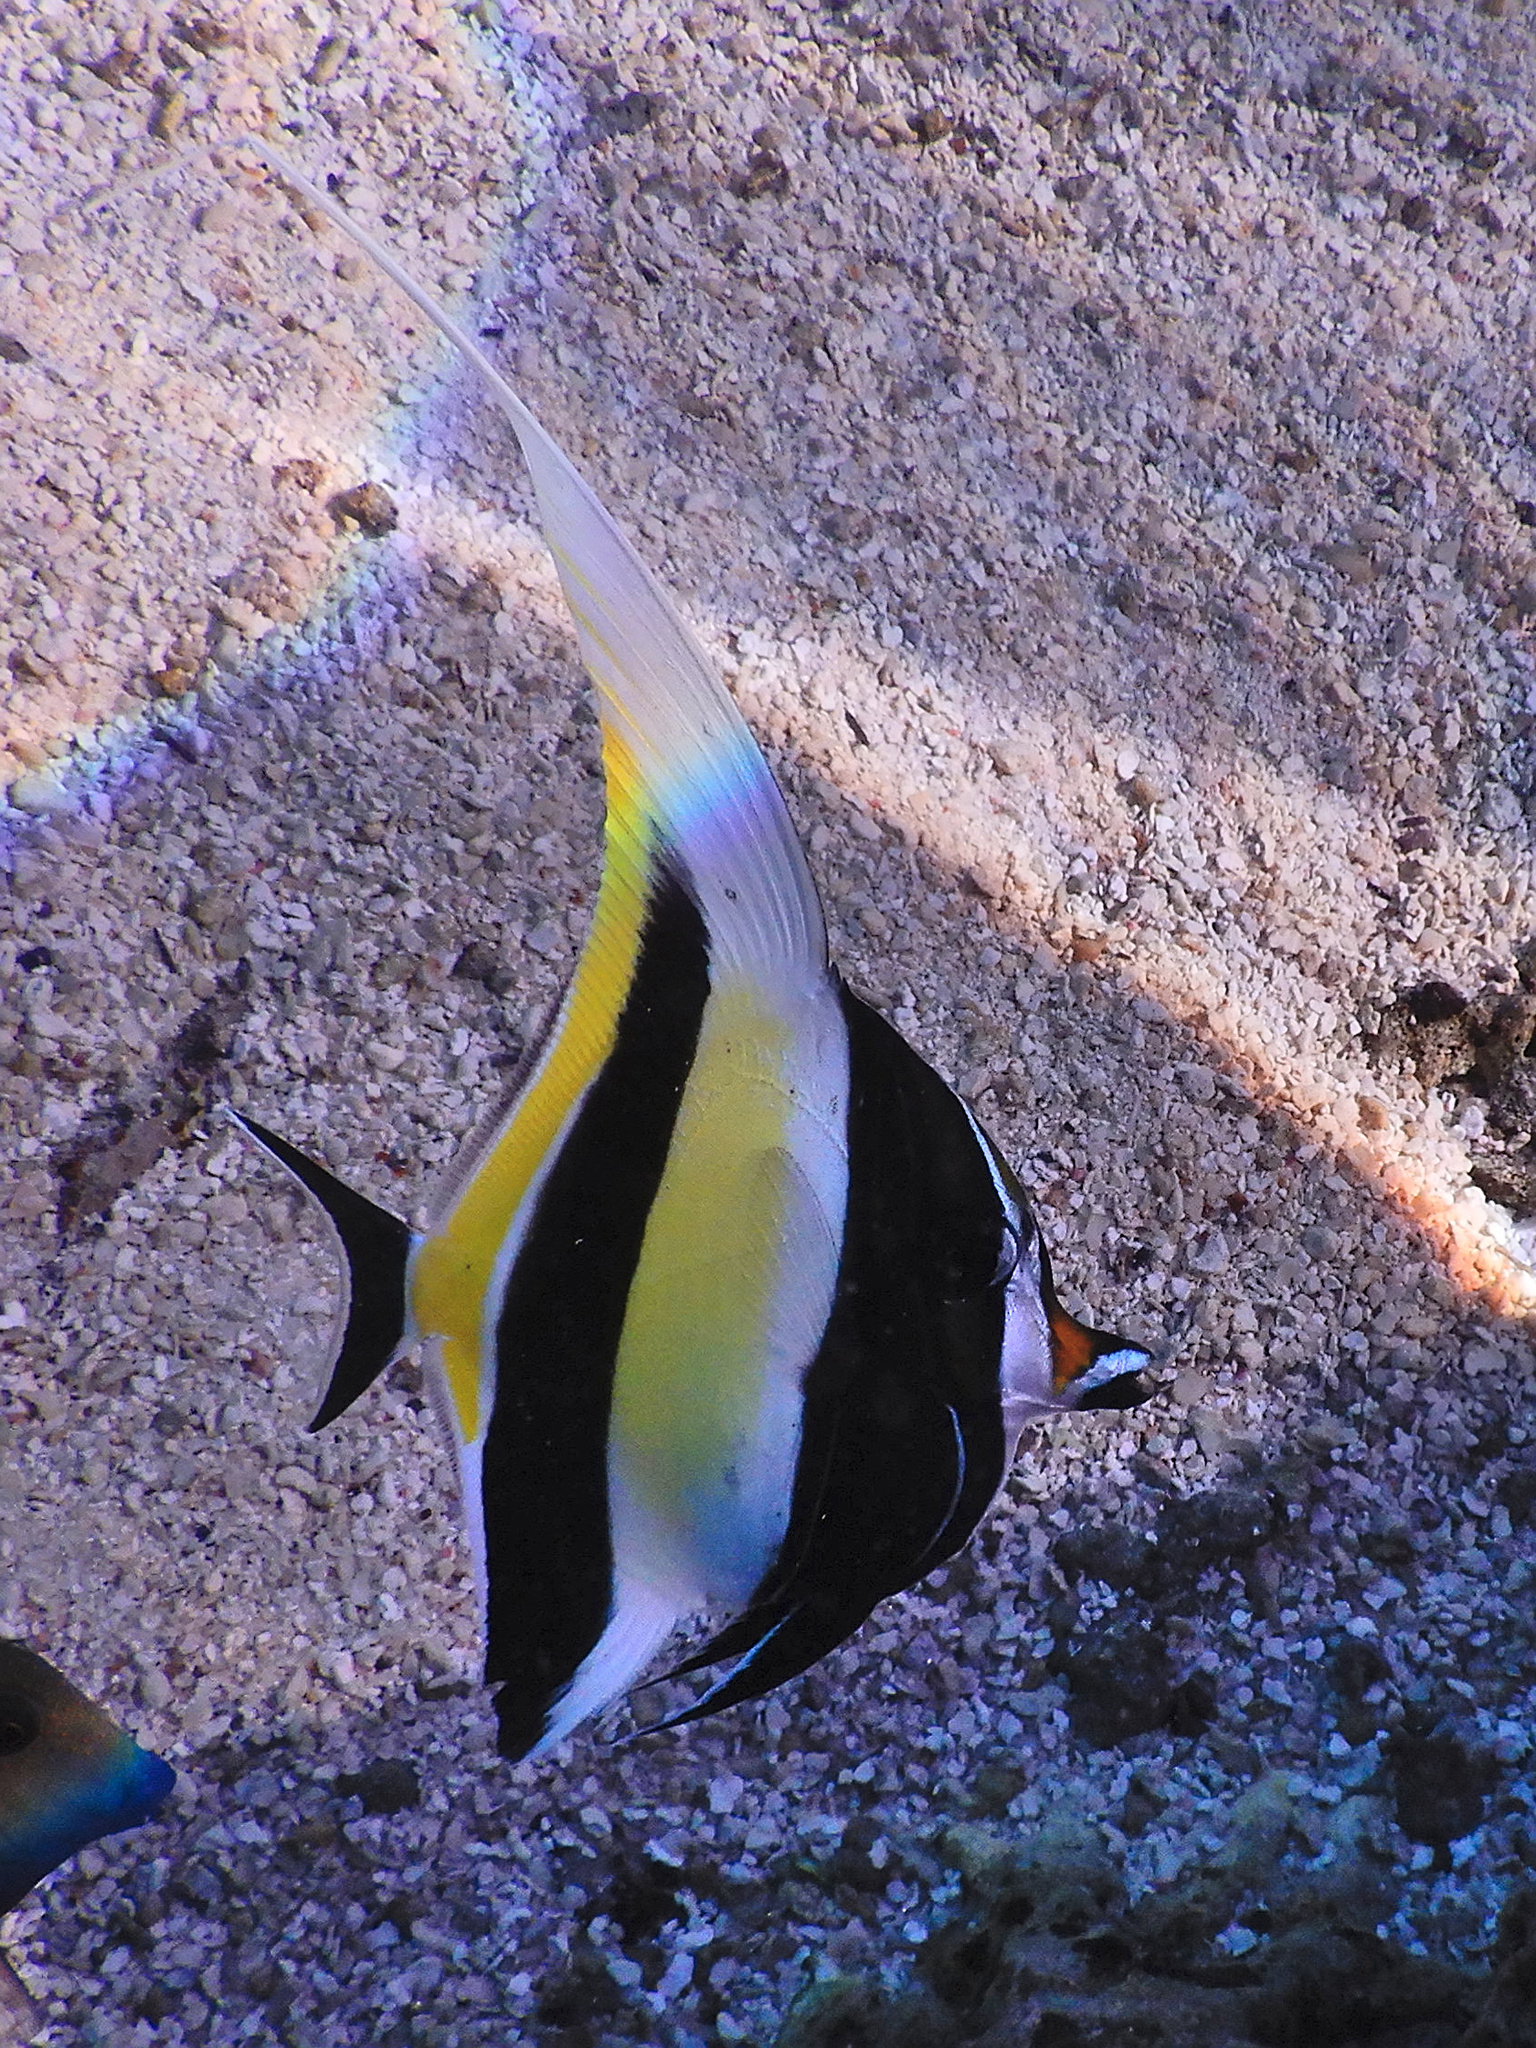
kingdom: Animalia
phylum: Chordata
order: Perciformes
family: Zanclidae
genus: Zanclus
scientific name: Zanclus cornutus
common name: Moorish idol
